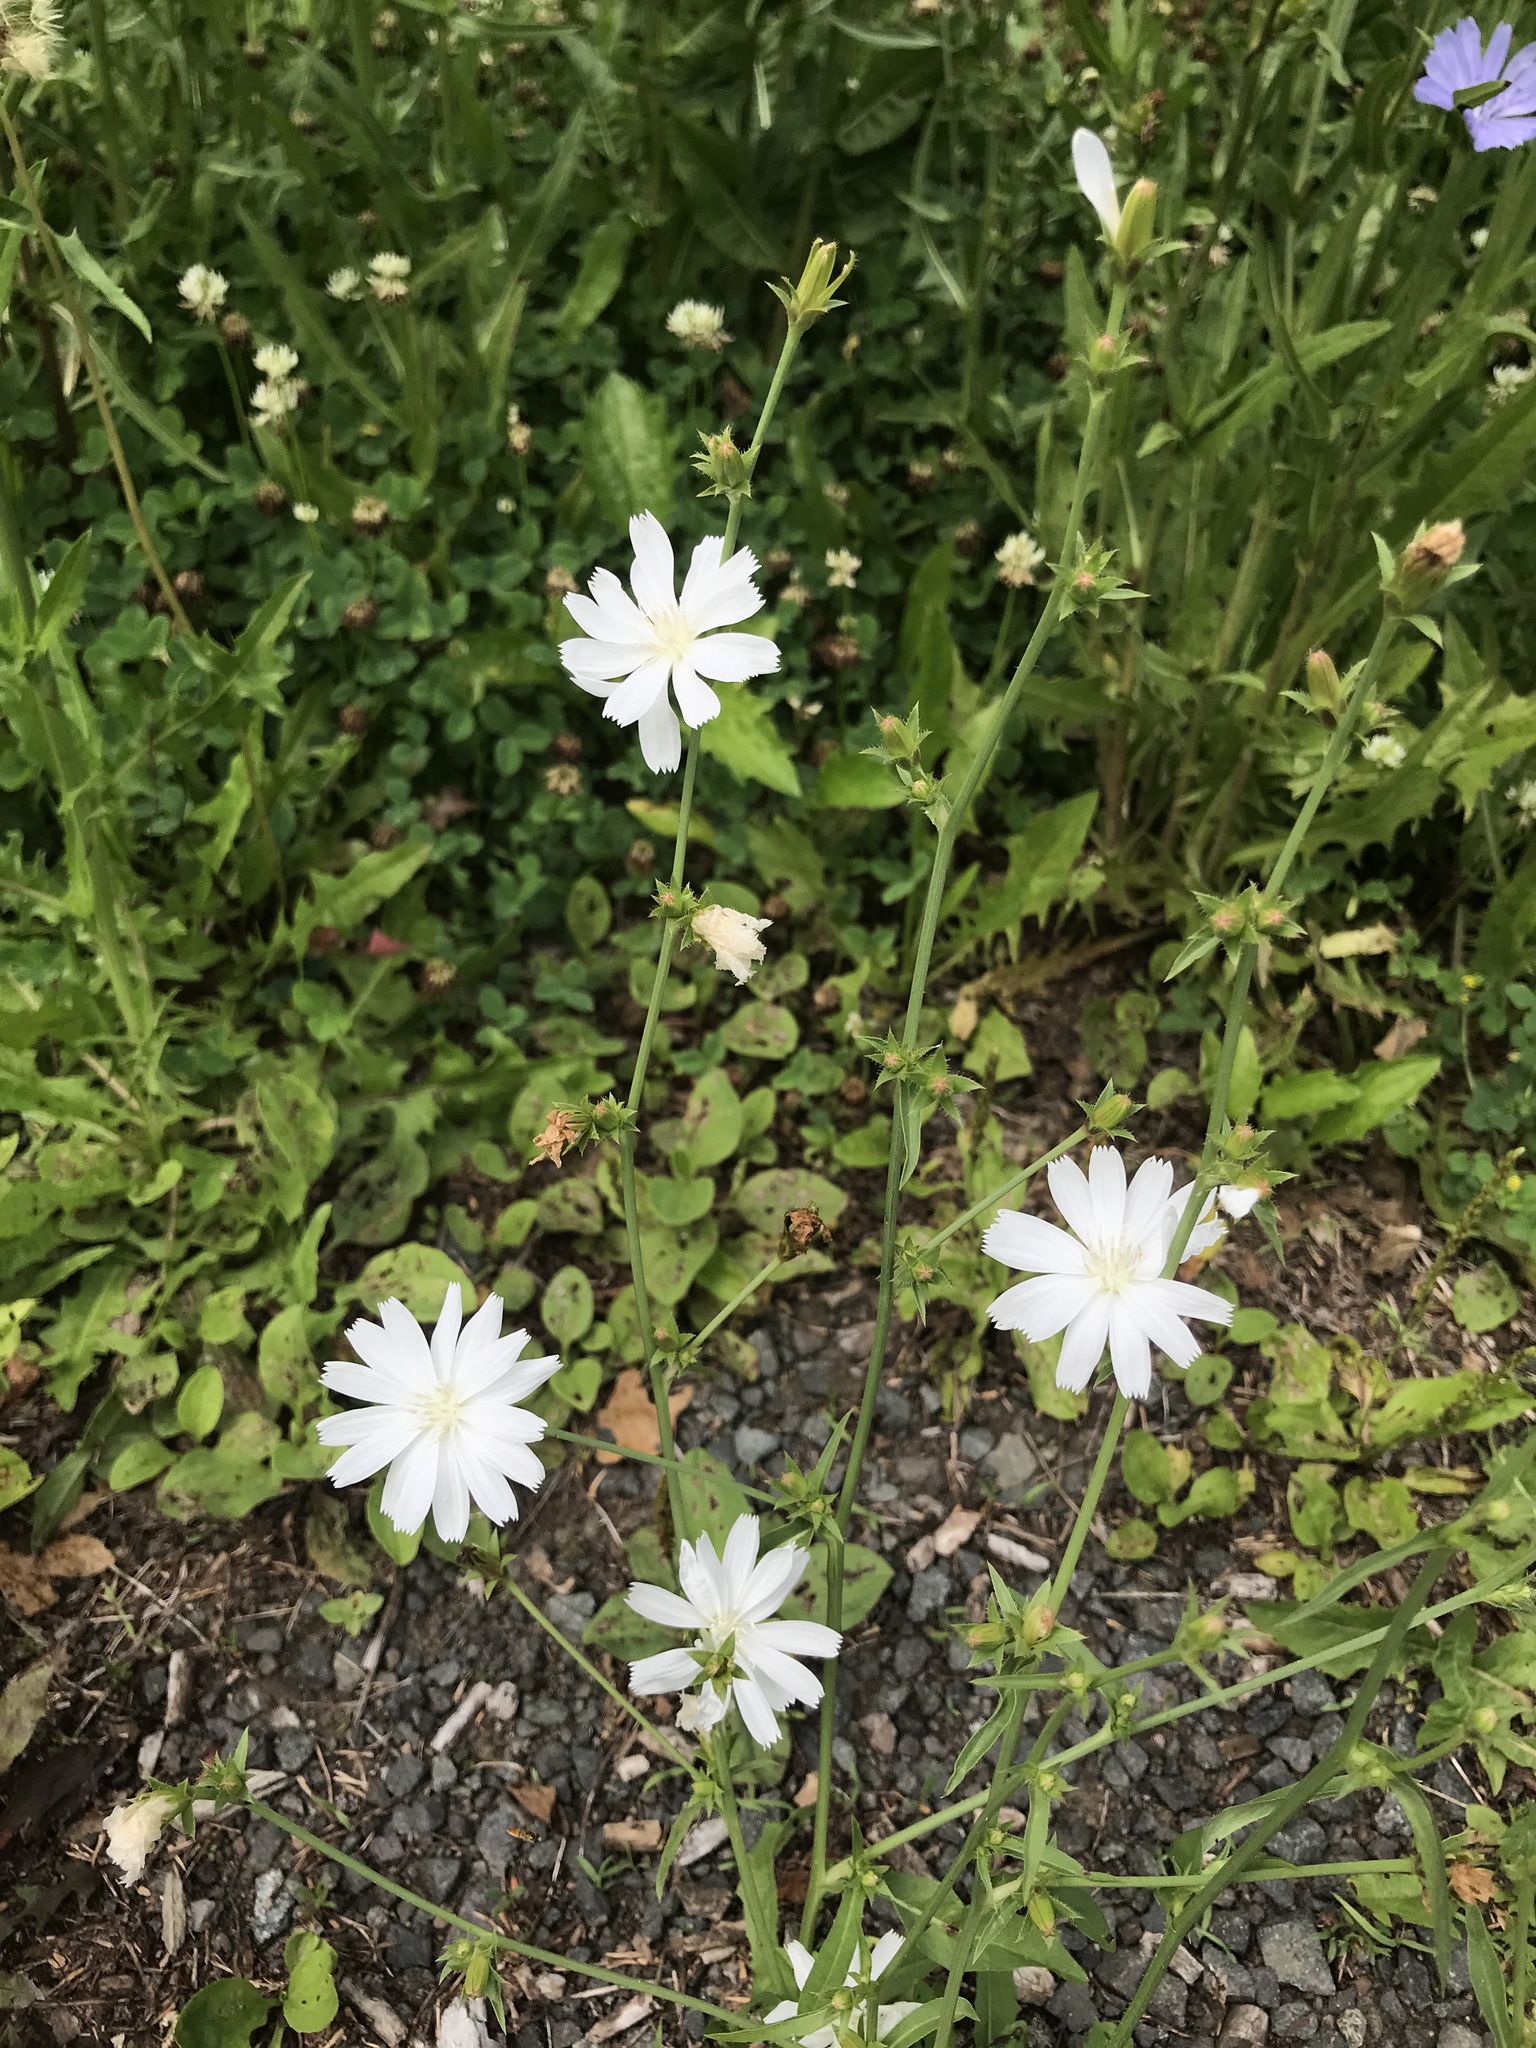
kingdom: Plantae
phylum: Tracheophyta
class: Magnoliopsida
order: Asterales
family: Asteraceae
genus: Cichorium
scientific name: Cichorium intybus
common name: Chicory
